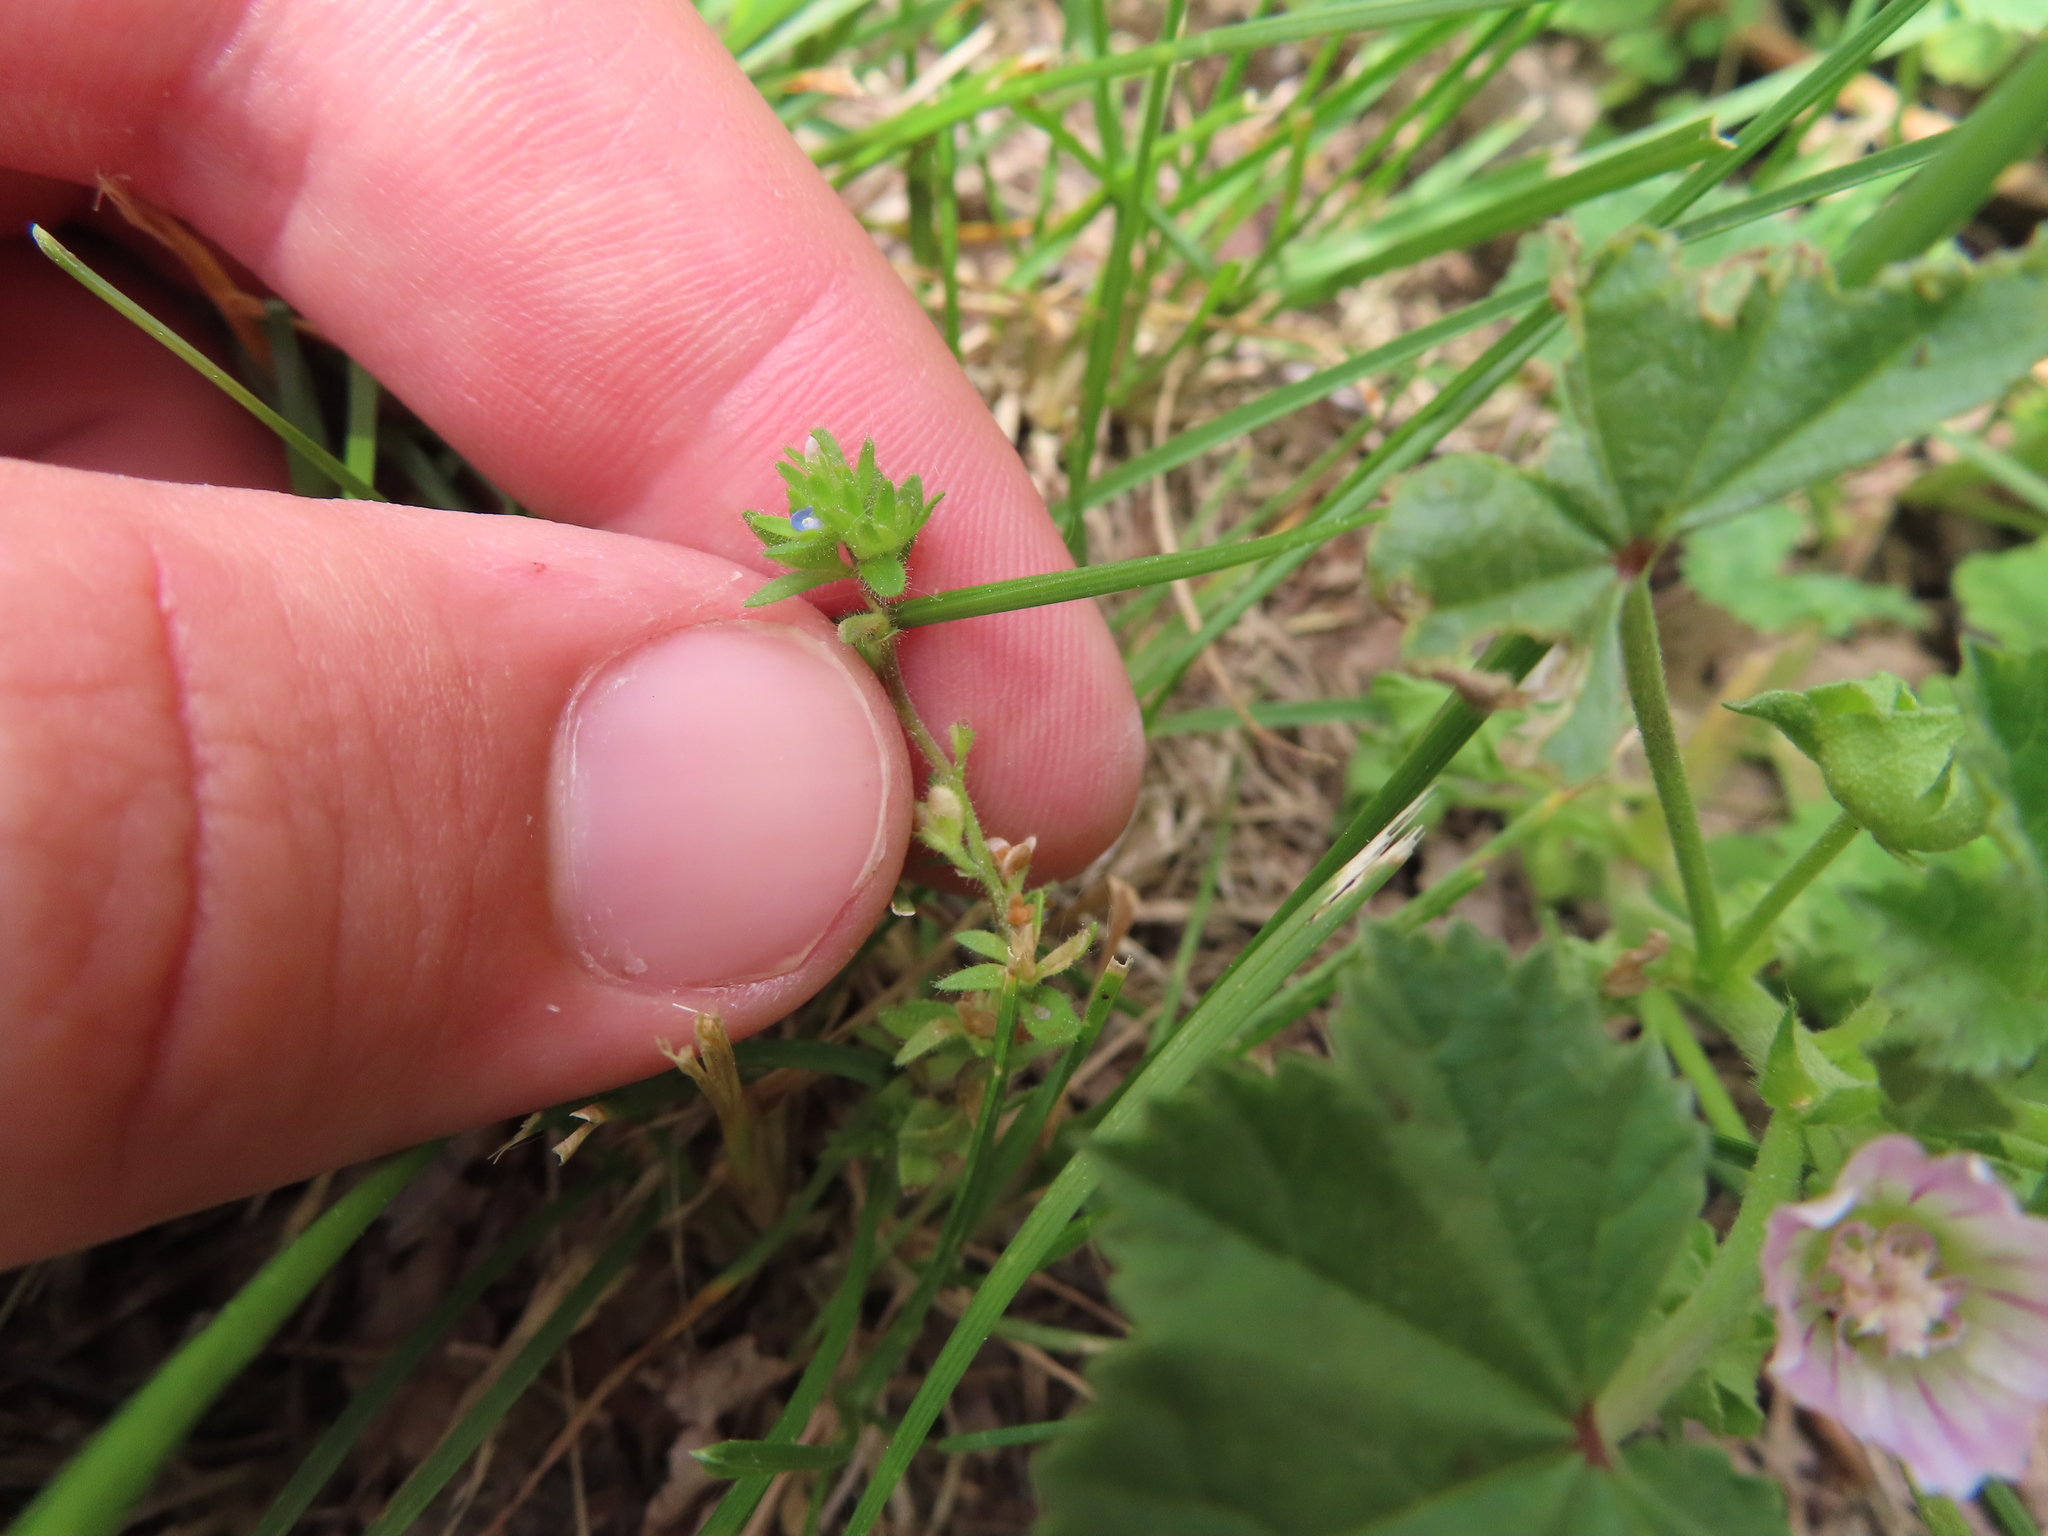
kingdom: Plantae
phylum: Tracheophyta
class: Magnoliopsida
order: Lamiales
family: Plantaginaceae
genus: Veronica
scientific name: Veronica arvensis
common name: Corn speedwell
